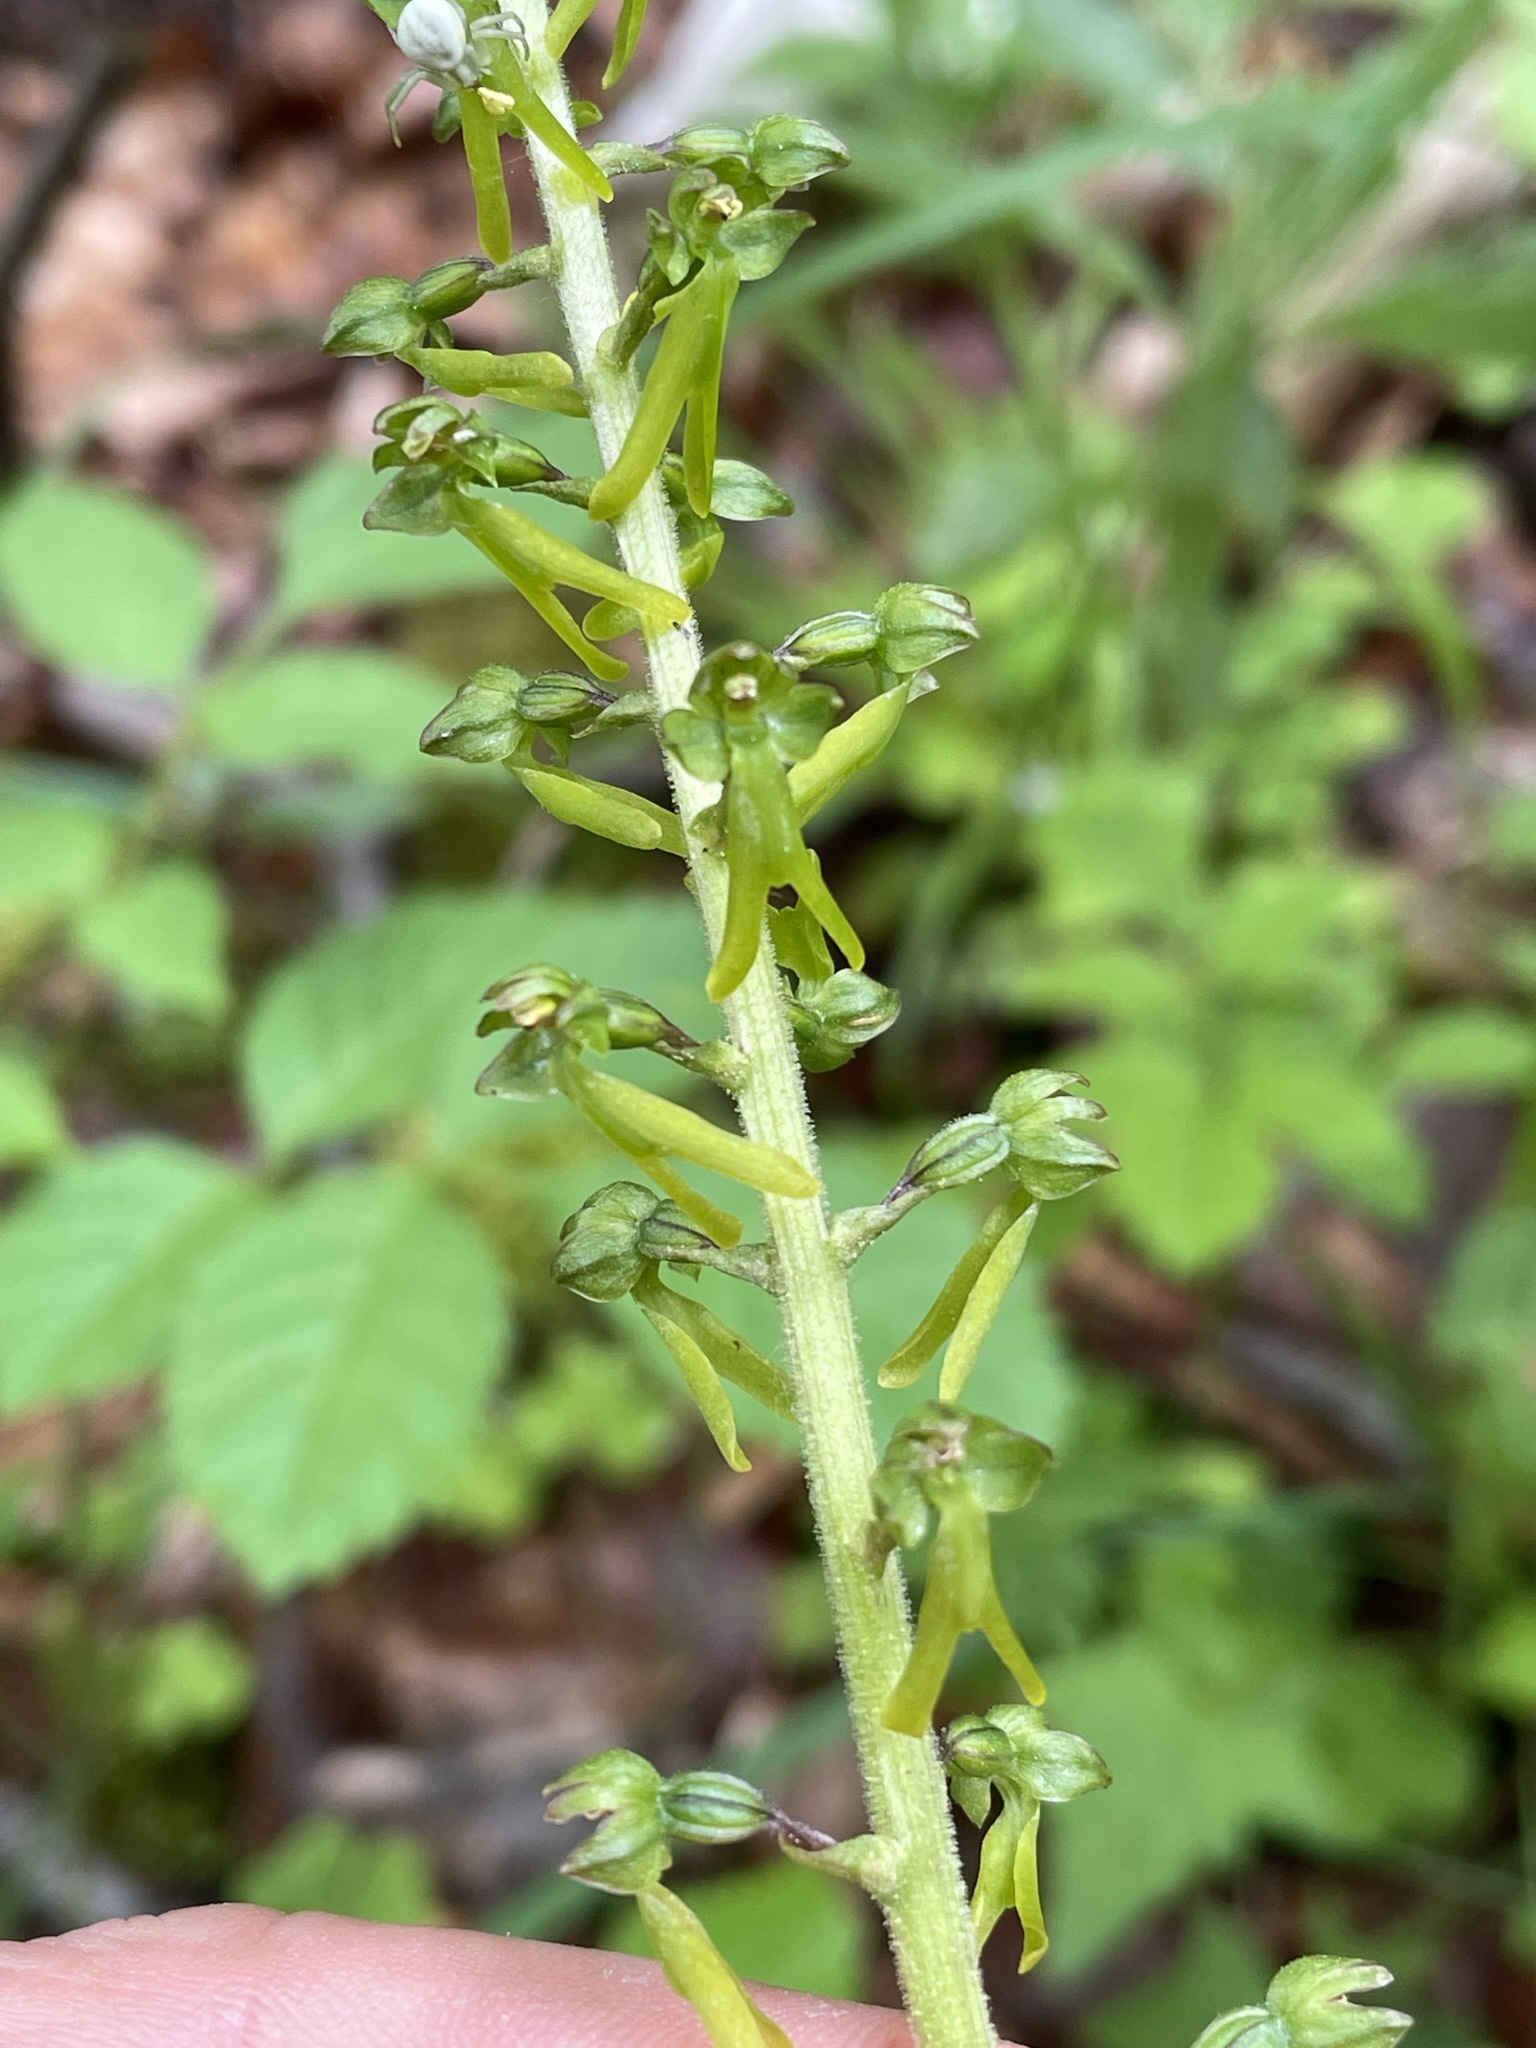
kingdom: Plantae
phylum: Tracheophyta
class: Liliopsida
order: Asparagales
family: Orchidaceae
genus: Neottia
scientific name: Neottia ovata
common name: Common twayblade
